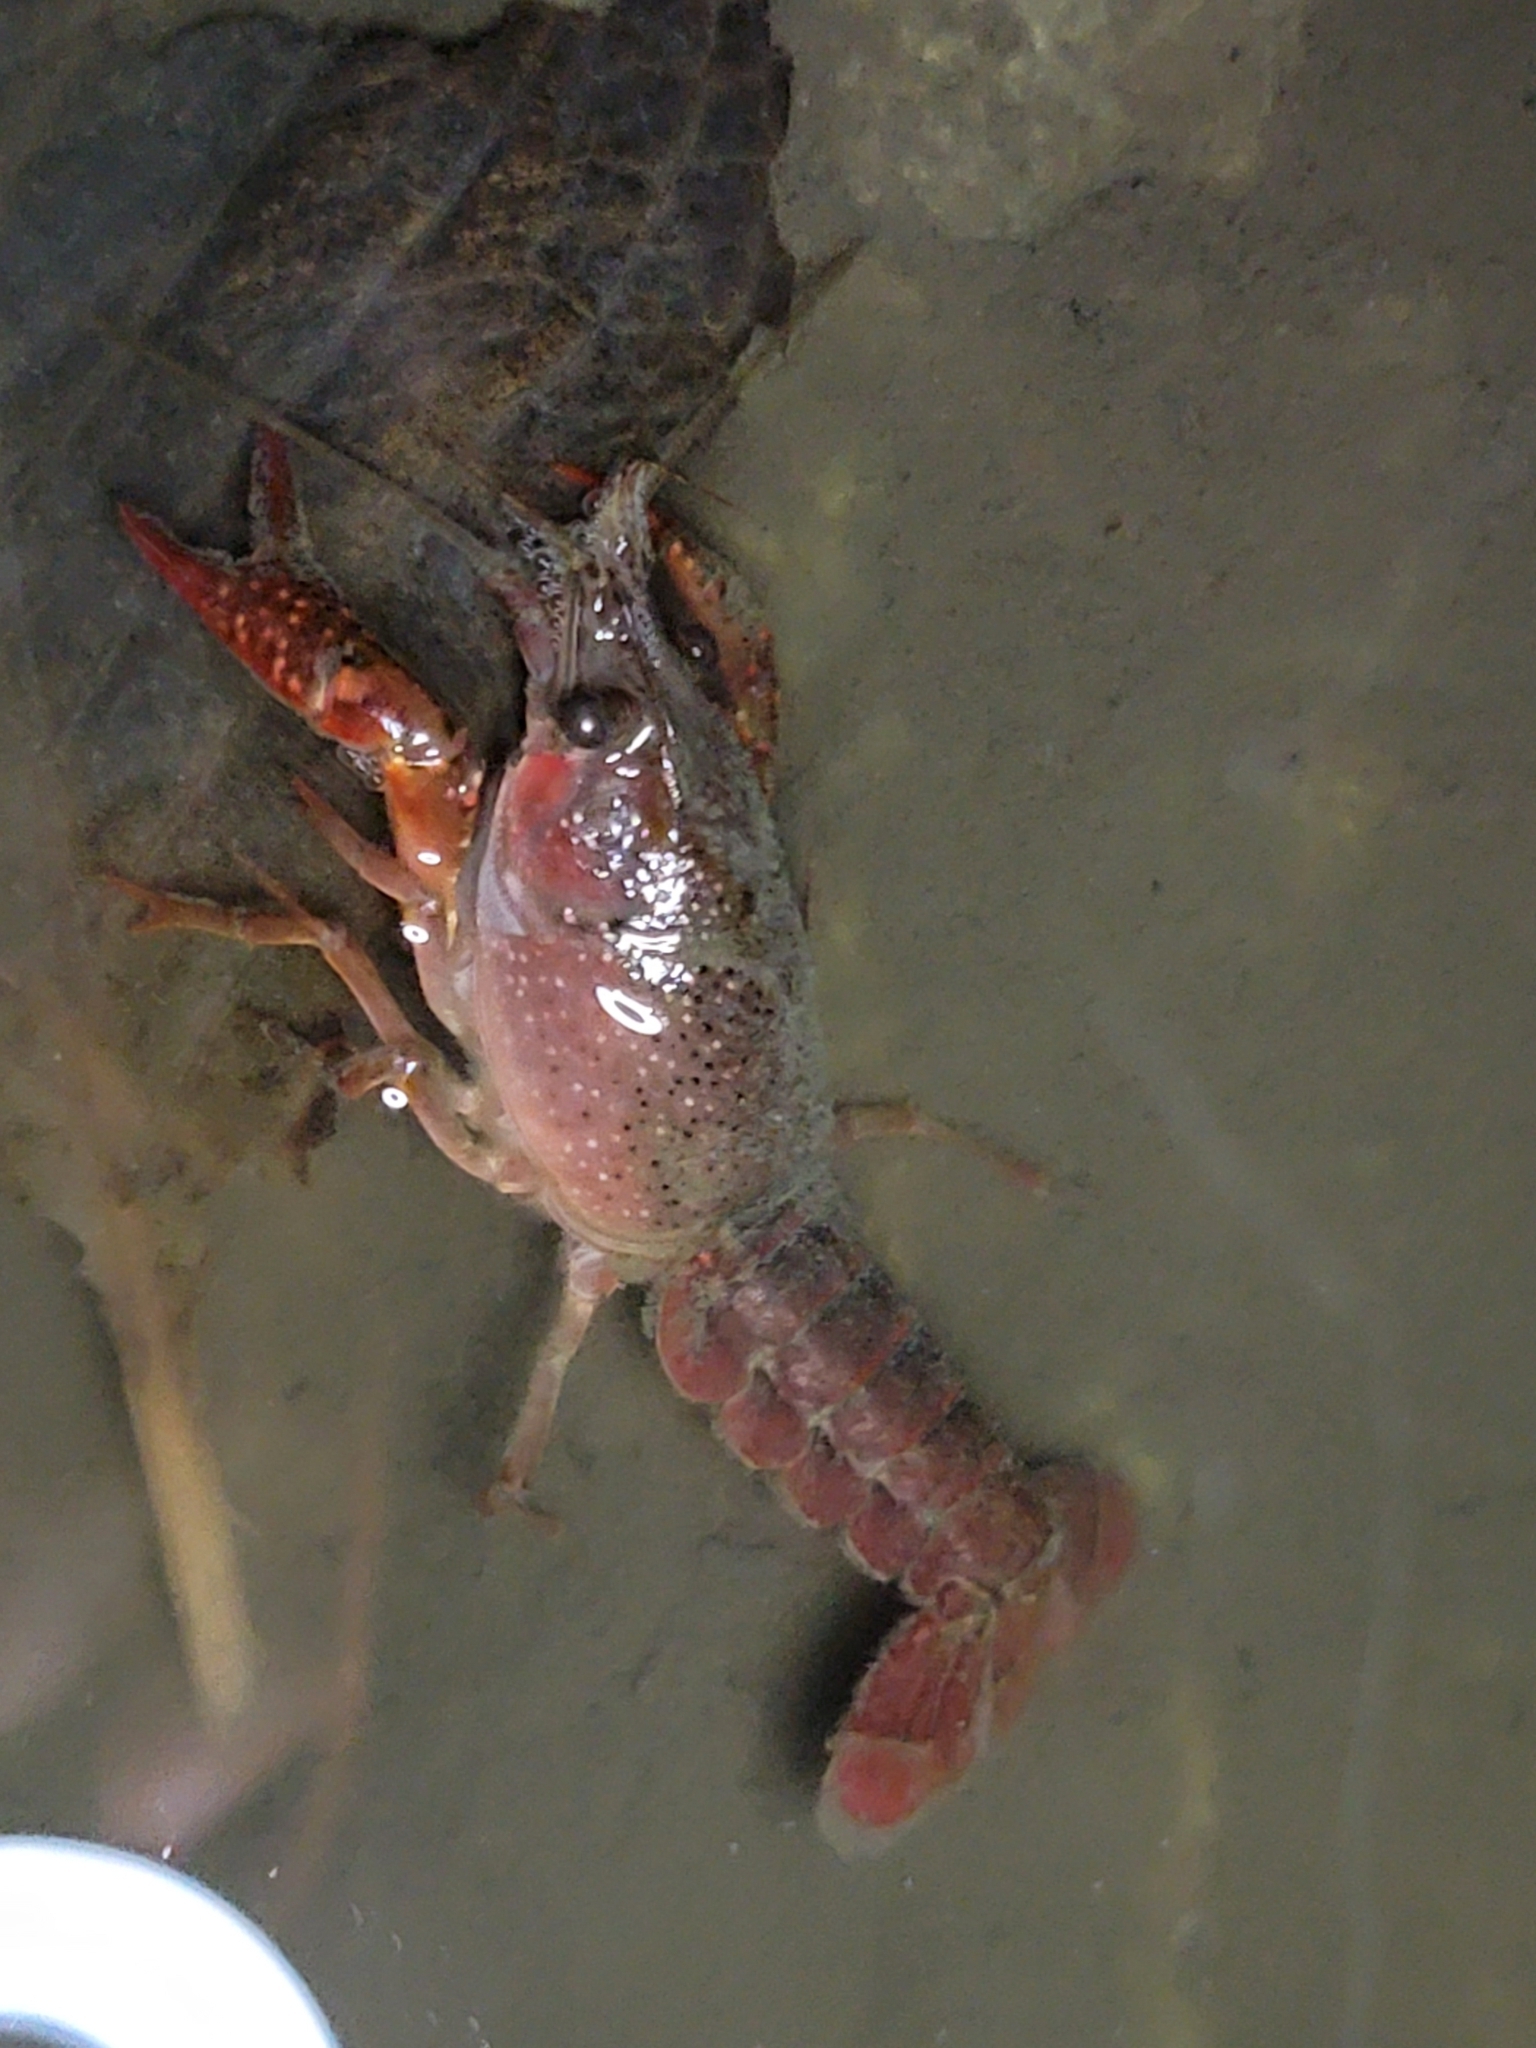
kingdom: Animalia
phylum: Arthropoda
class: Malacostraca
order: Decapoda
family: Cambaridae
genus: Procambarus
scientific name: Procambarus clarkii
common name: Red swamp crayfish
